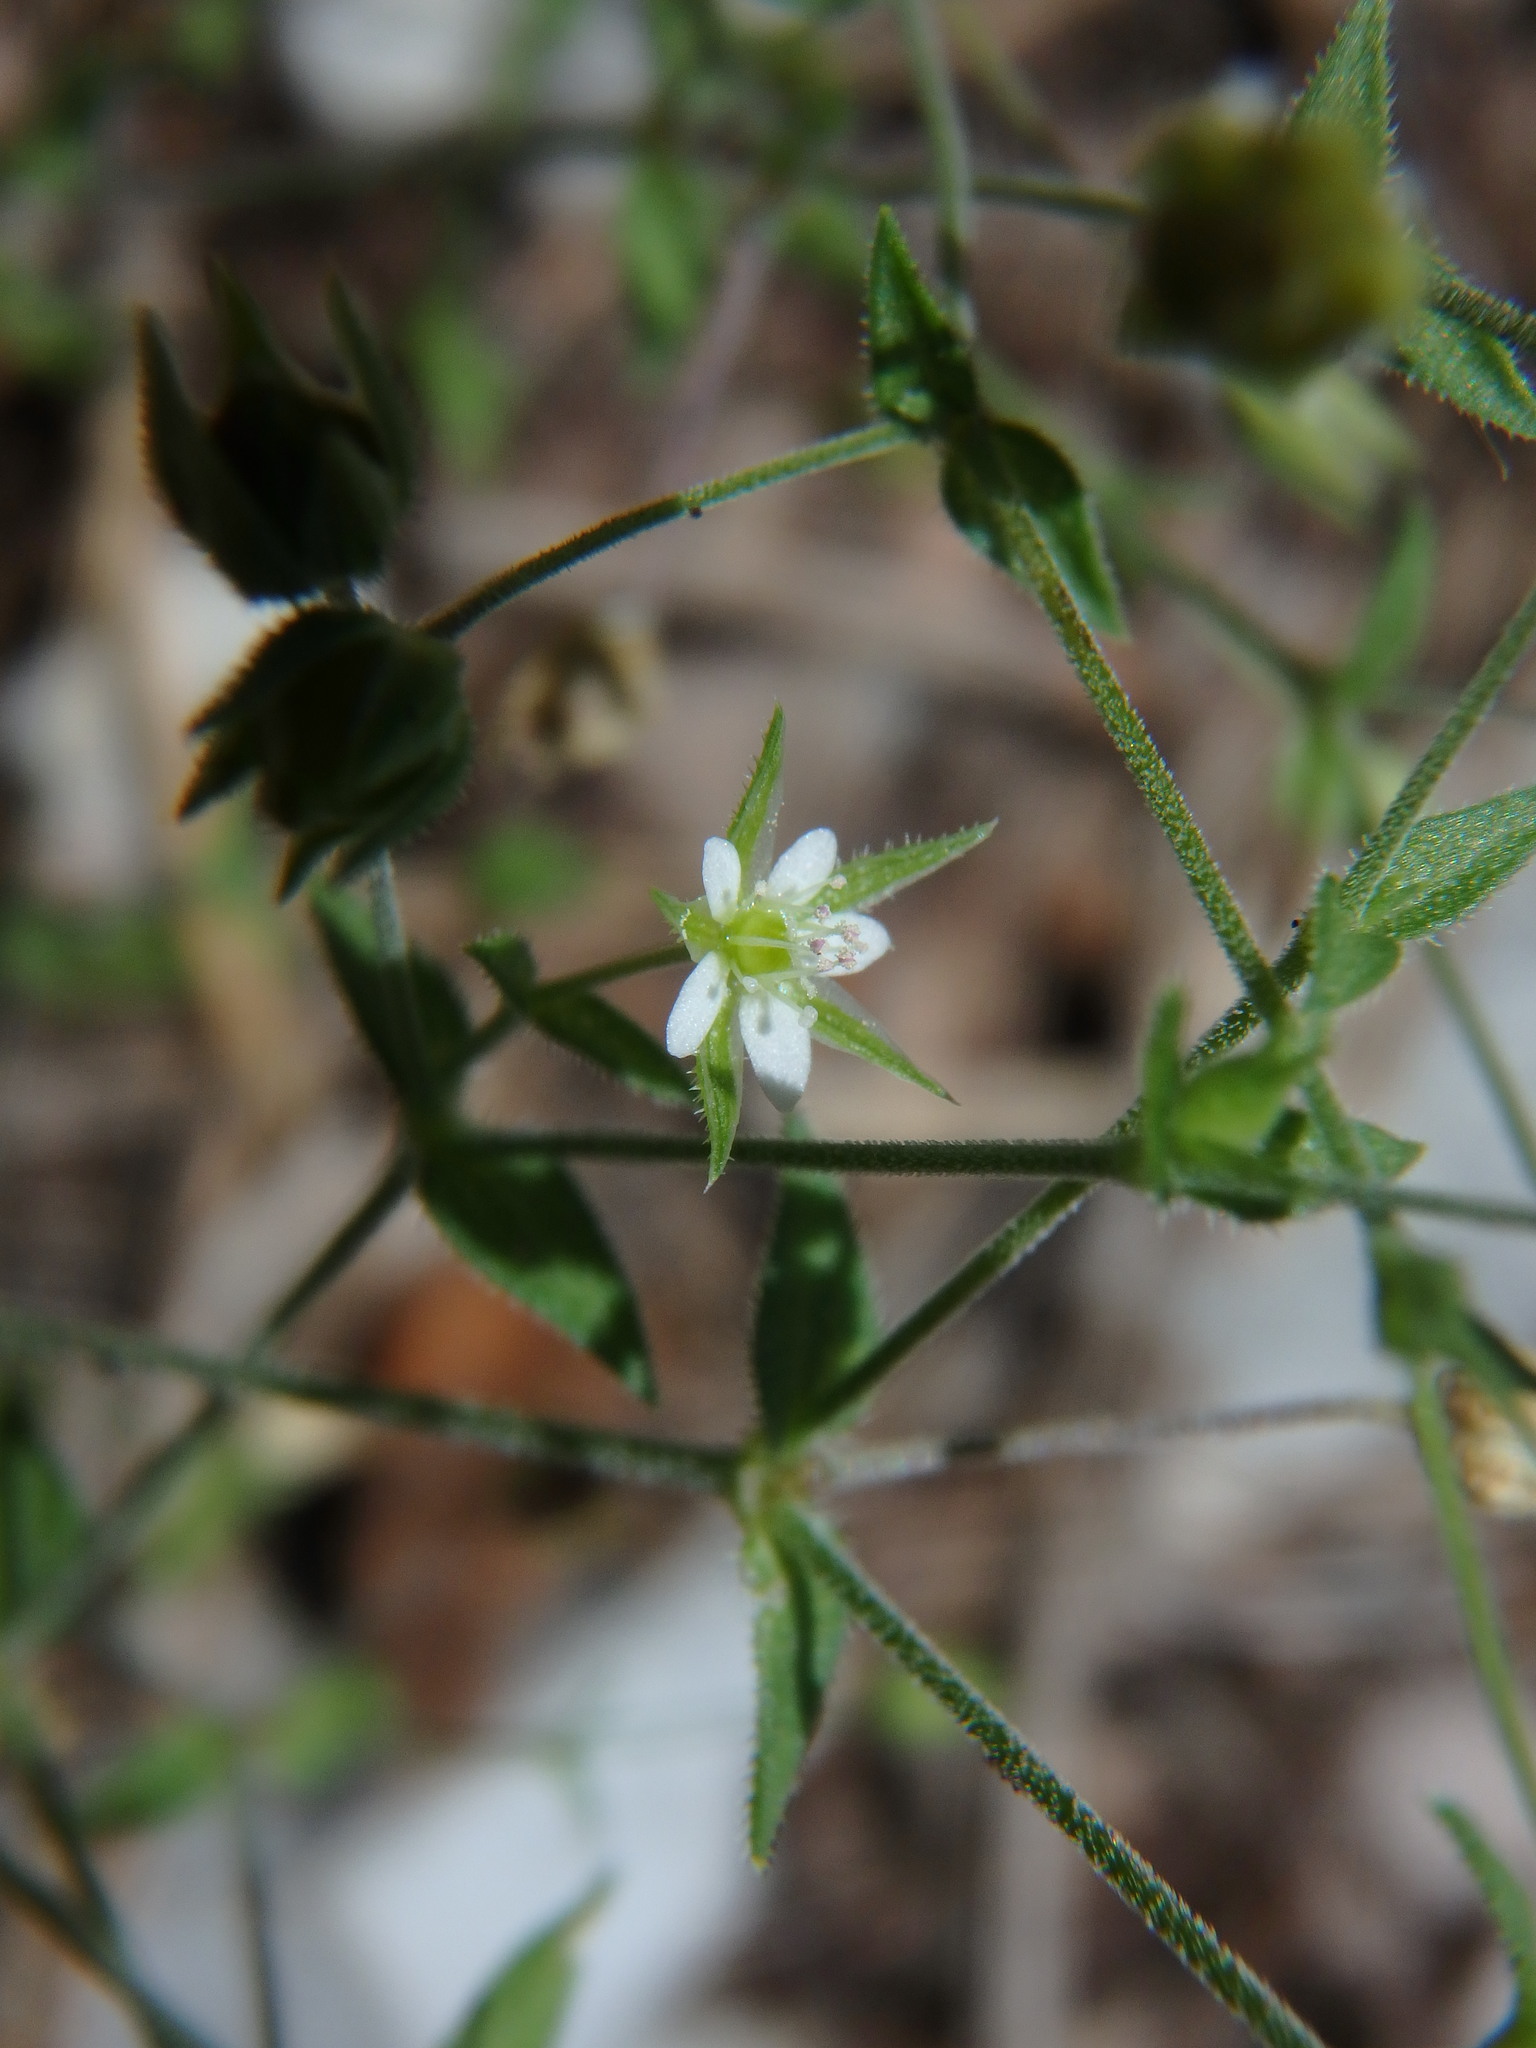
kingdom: Plantae
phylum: Tracheophyta
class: Magnoliopsida
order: Caryophyllales
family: Caryophyllaceae
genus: Arenaria
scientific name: Arenaria serpyllifolia
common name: Thyme-leaved sandwort
